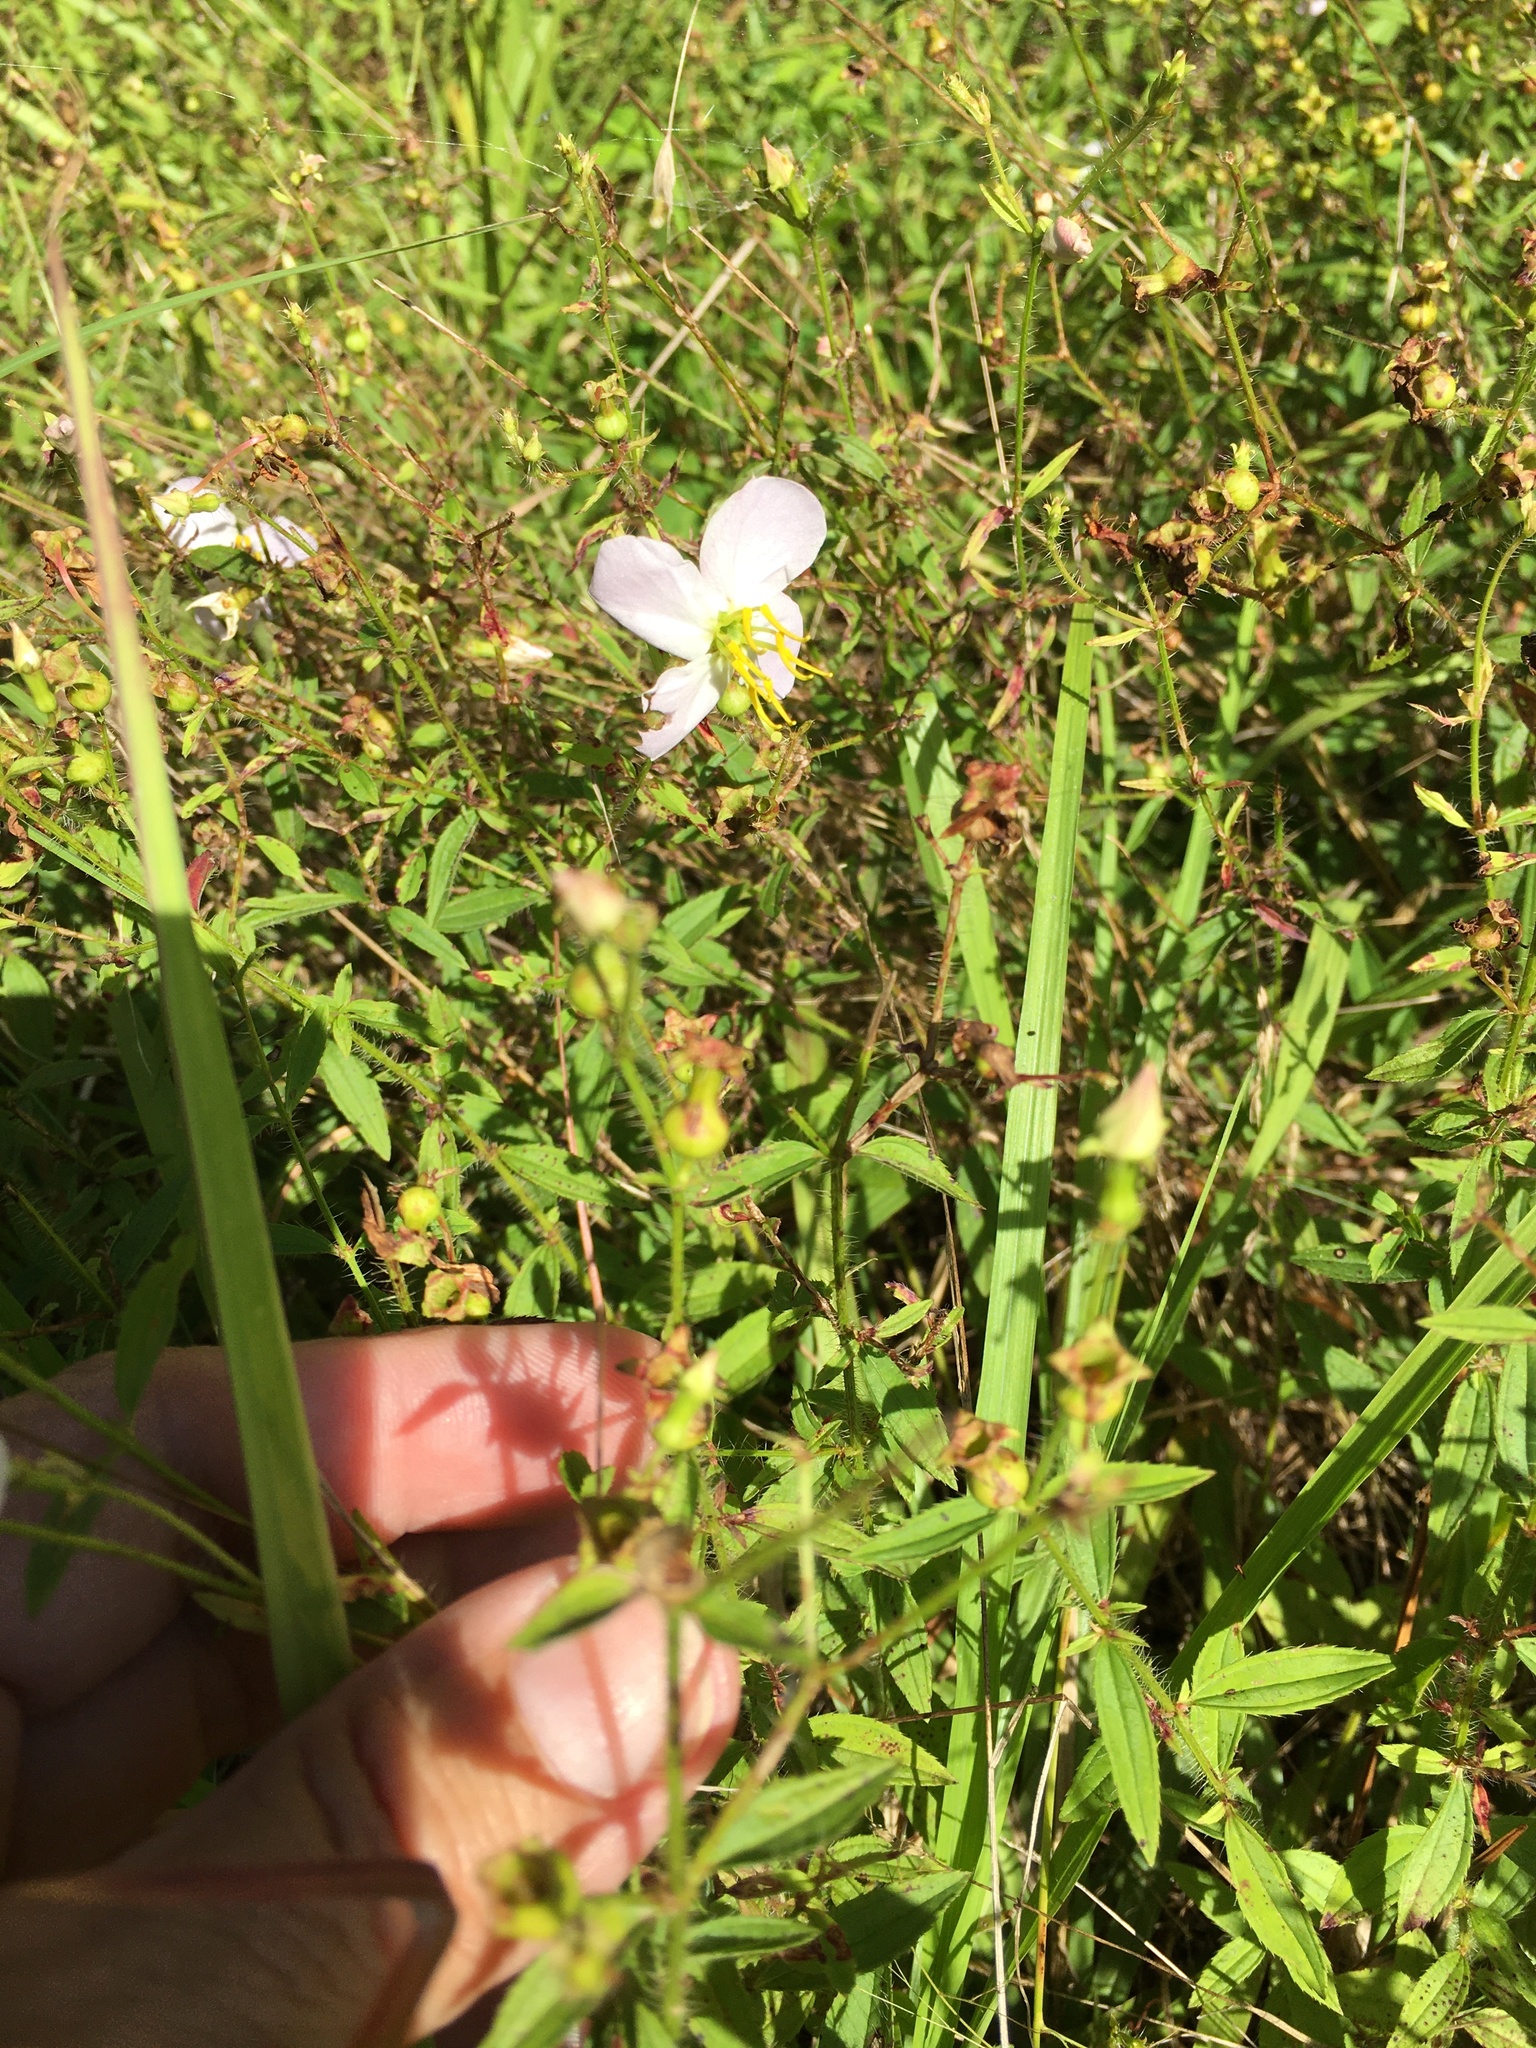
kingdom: Plantae
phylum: Tracheophyta
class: Magnoliopsida
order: Myrtales
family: Melastomataceae
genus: Rhexia
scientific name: Rhexia mariana
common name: Dull meadow-pitcher
